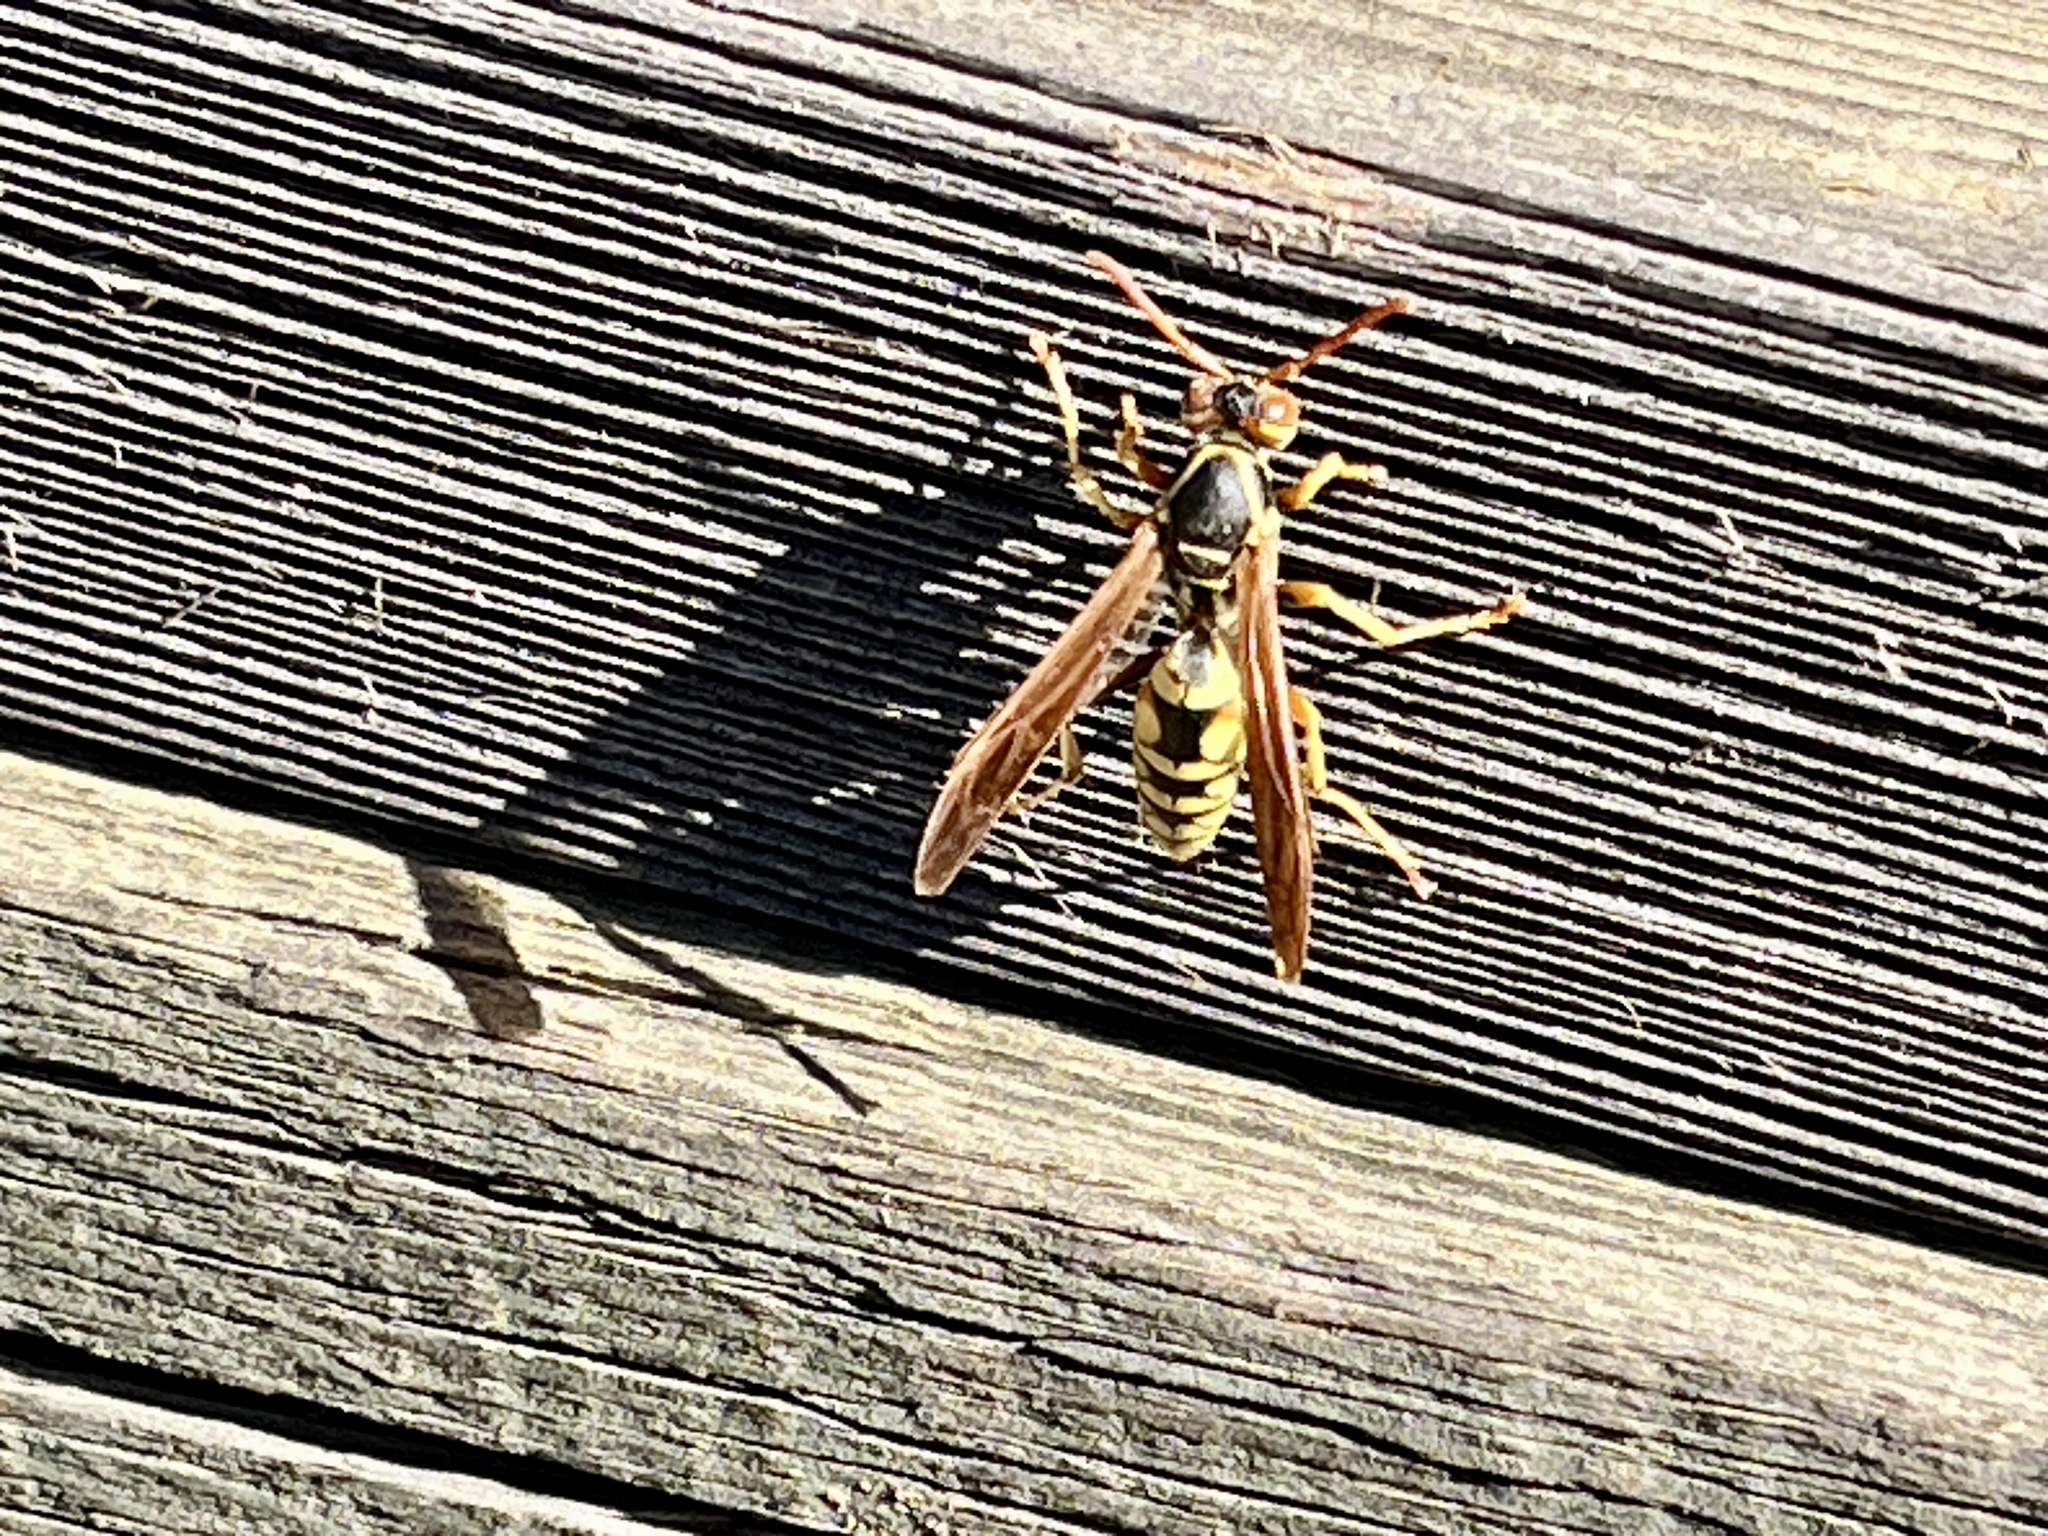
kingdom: Animalia
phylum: Arthropoda
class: Insecta
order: Hymenoptera
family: Eumenidae
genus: Polistes
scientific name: Polistes aurifer
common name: Paper wasp
